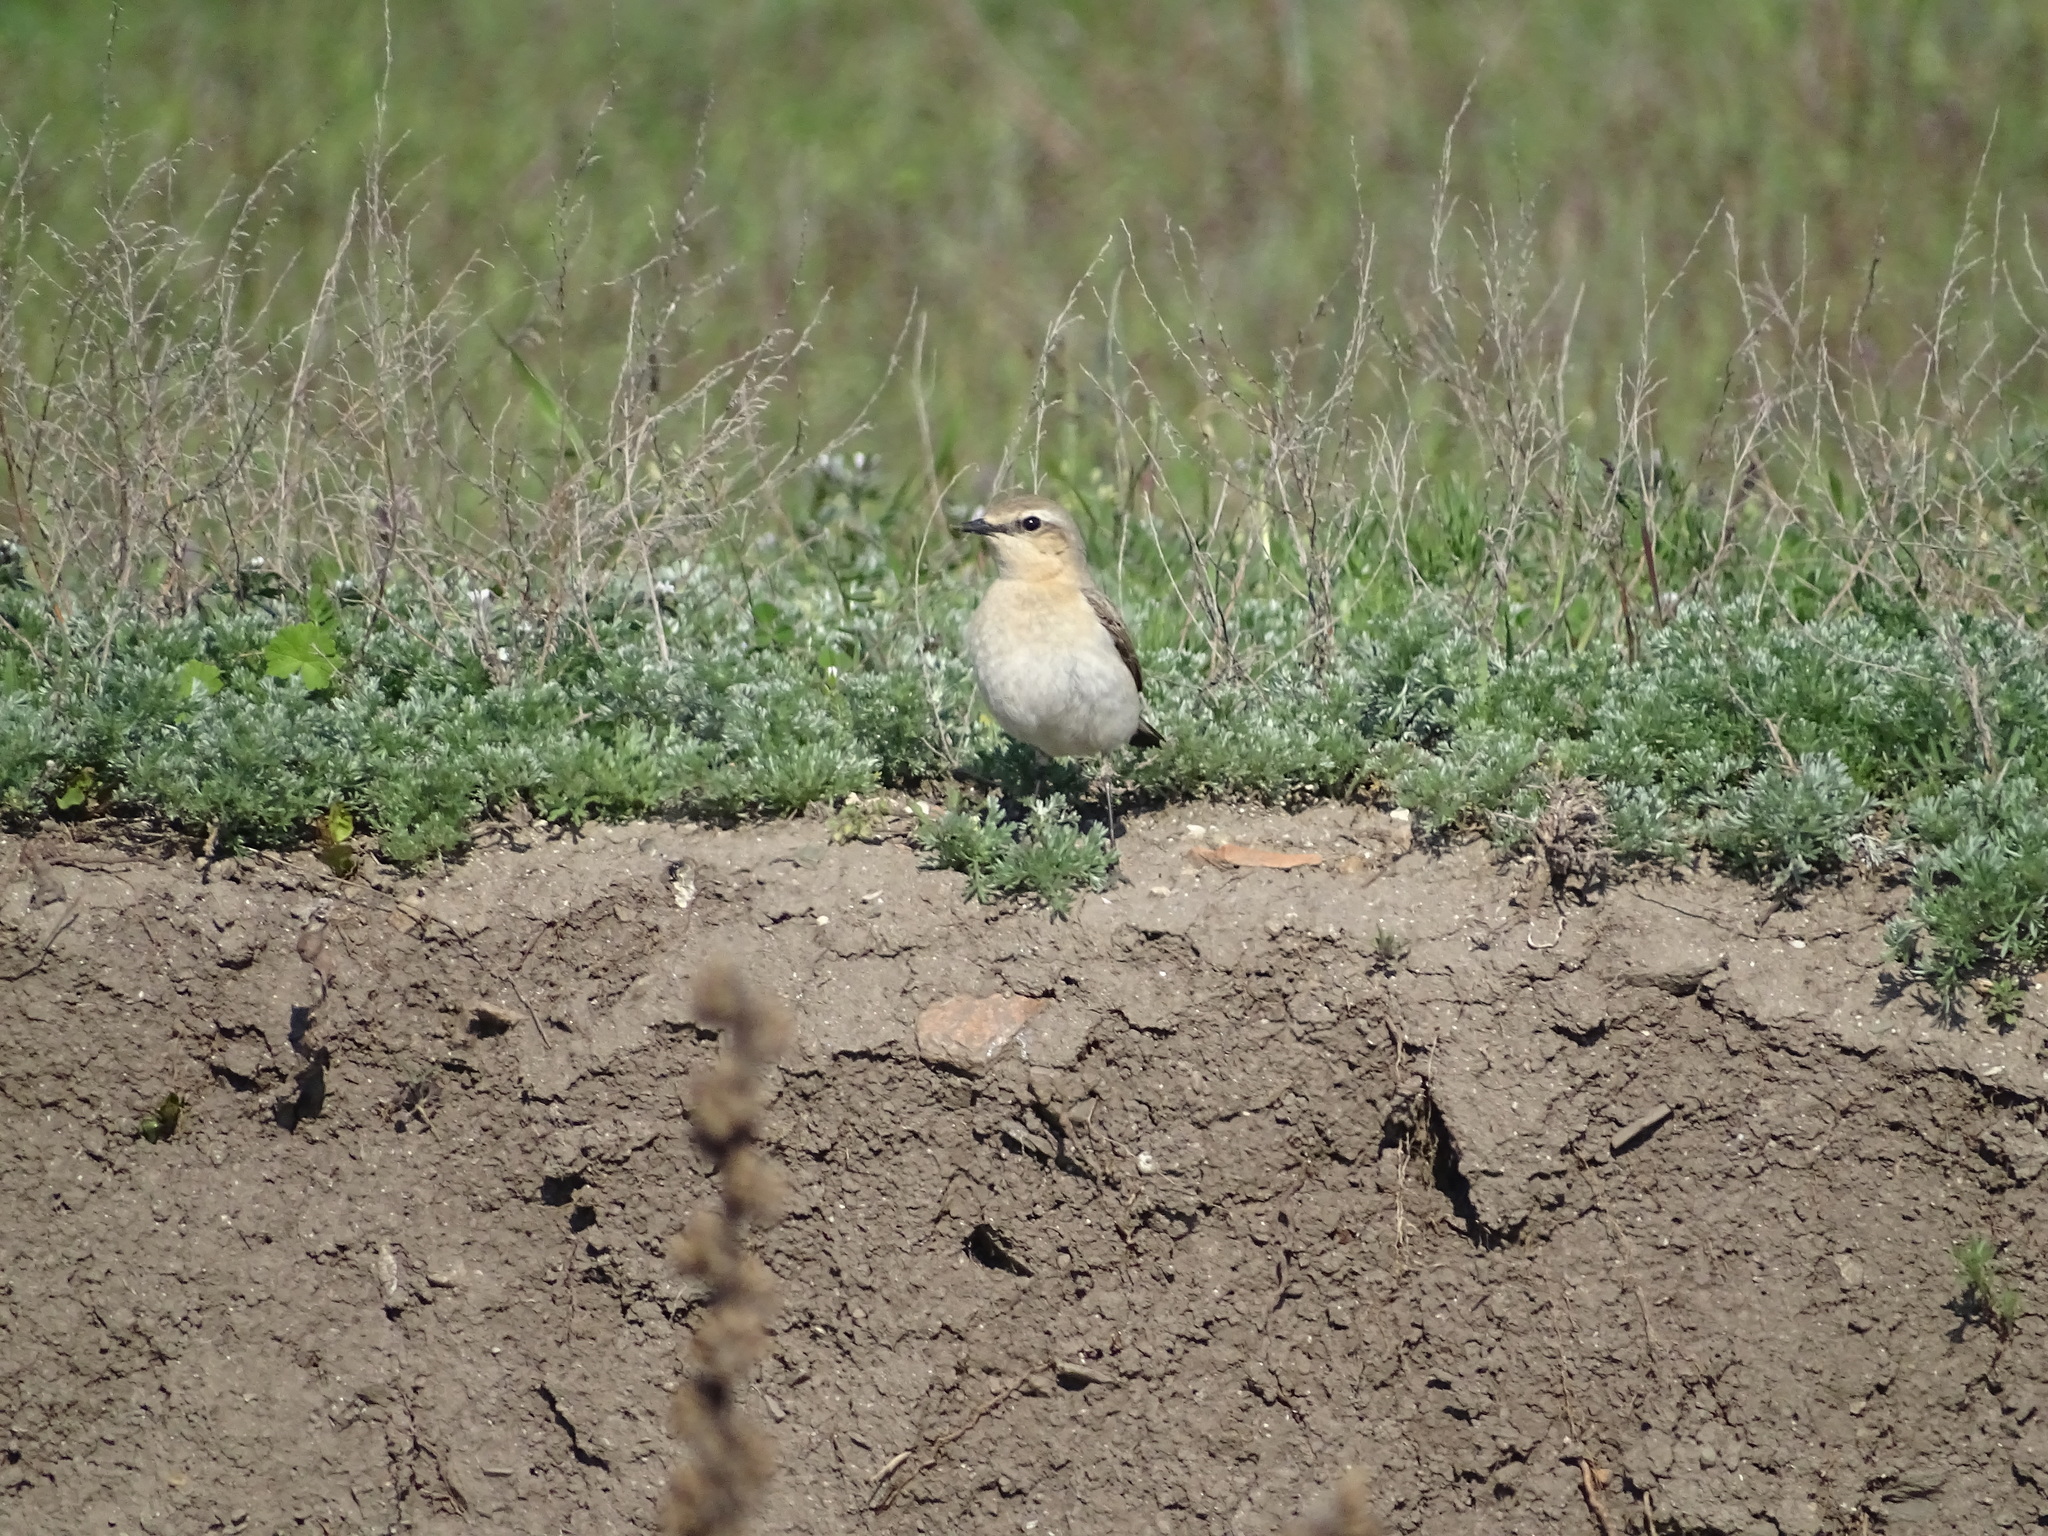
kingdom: Animalia
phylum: Chordata
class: Aves
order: Passeriformes
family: Muscicapidae
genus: Oenanthe
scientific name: Oenanthe oenanthe
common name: Northern wheatear
